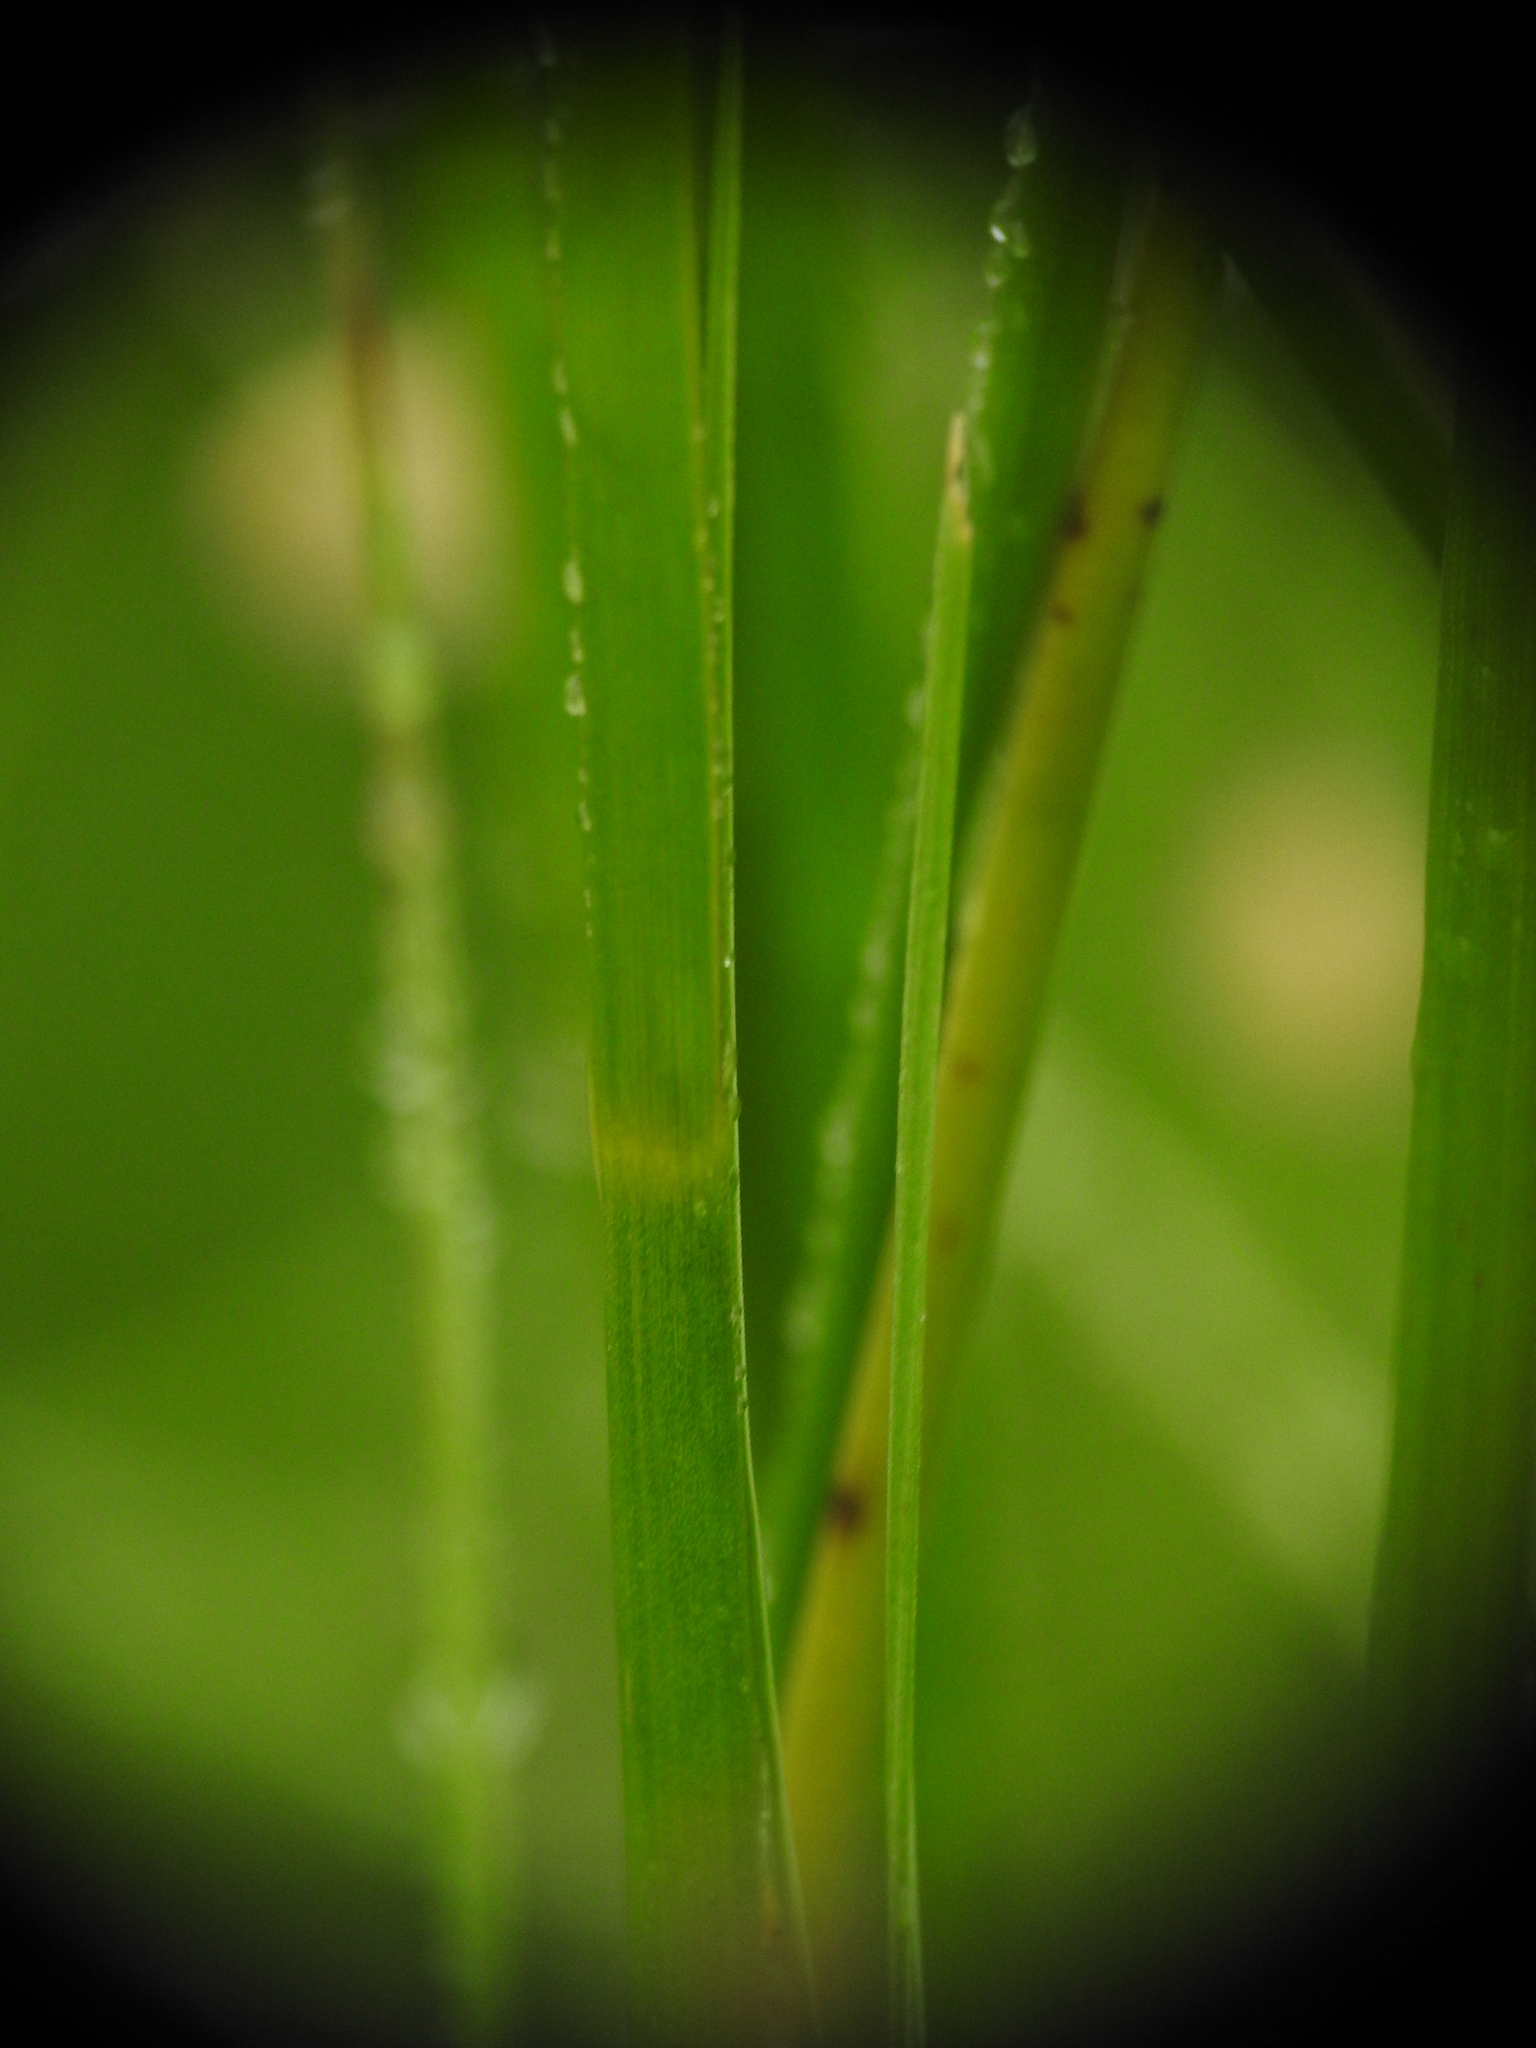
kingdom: Plantae
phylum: Tracheophyta
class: Liliopsida
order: Poales
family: Juncaceae
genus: Juncus
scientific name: Juncus acutiflorus
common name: Sharp-flowered rush
